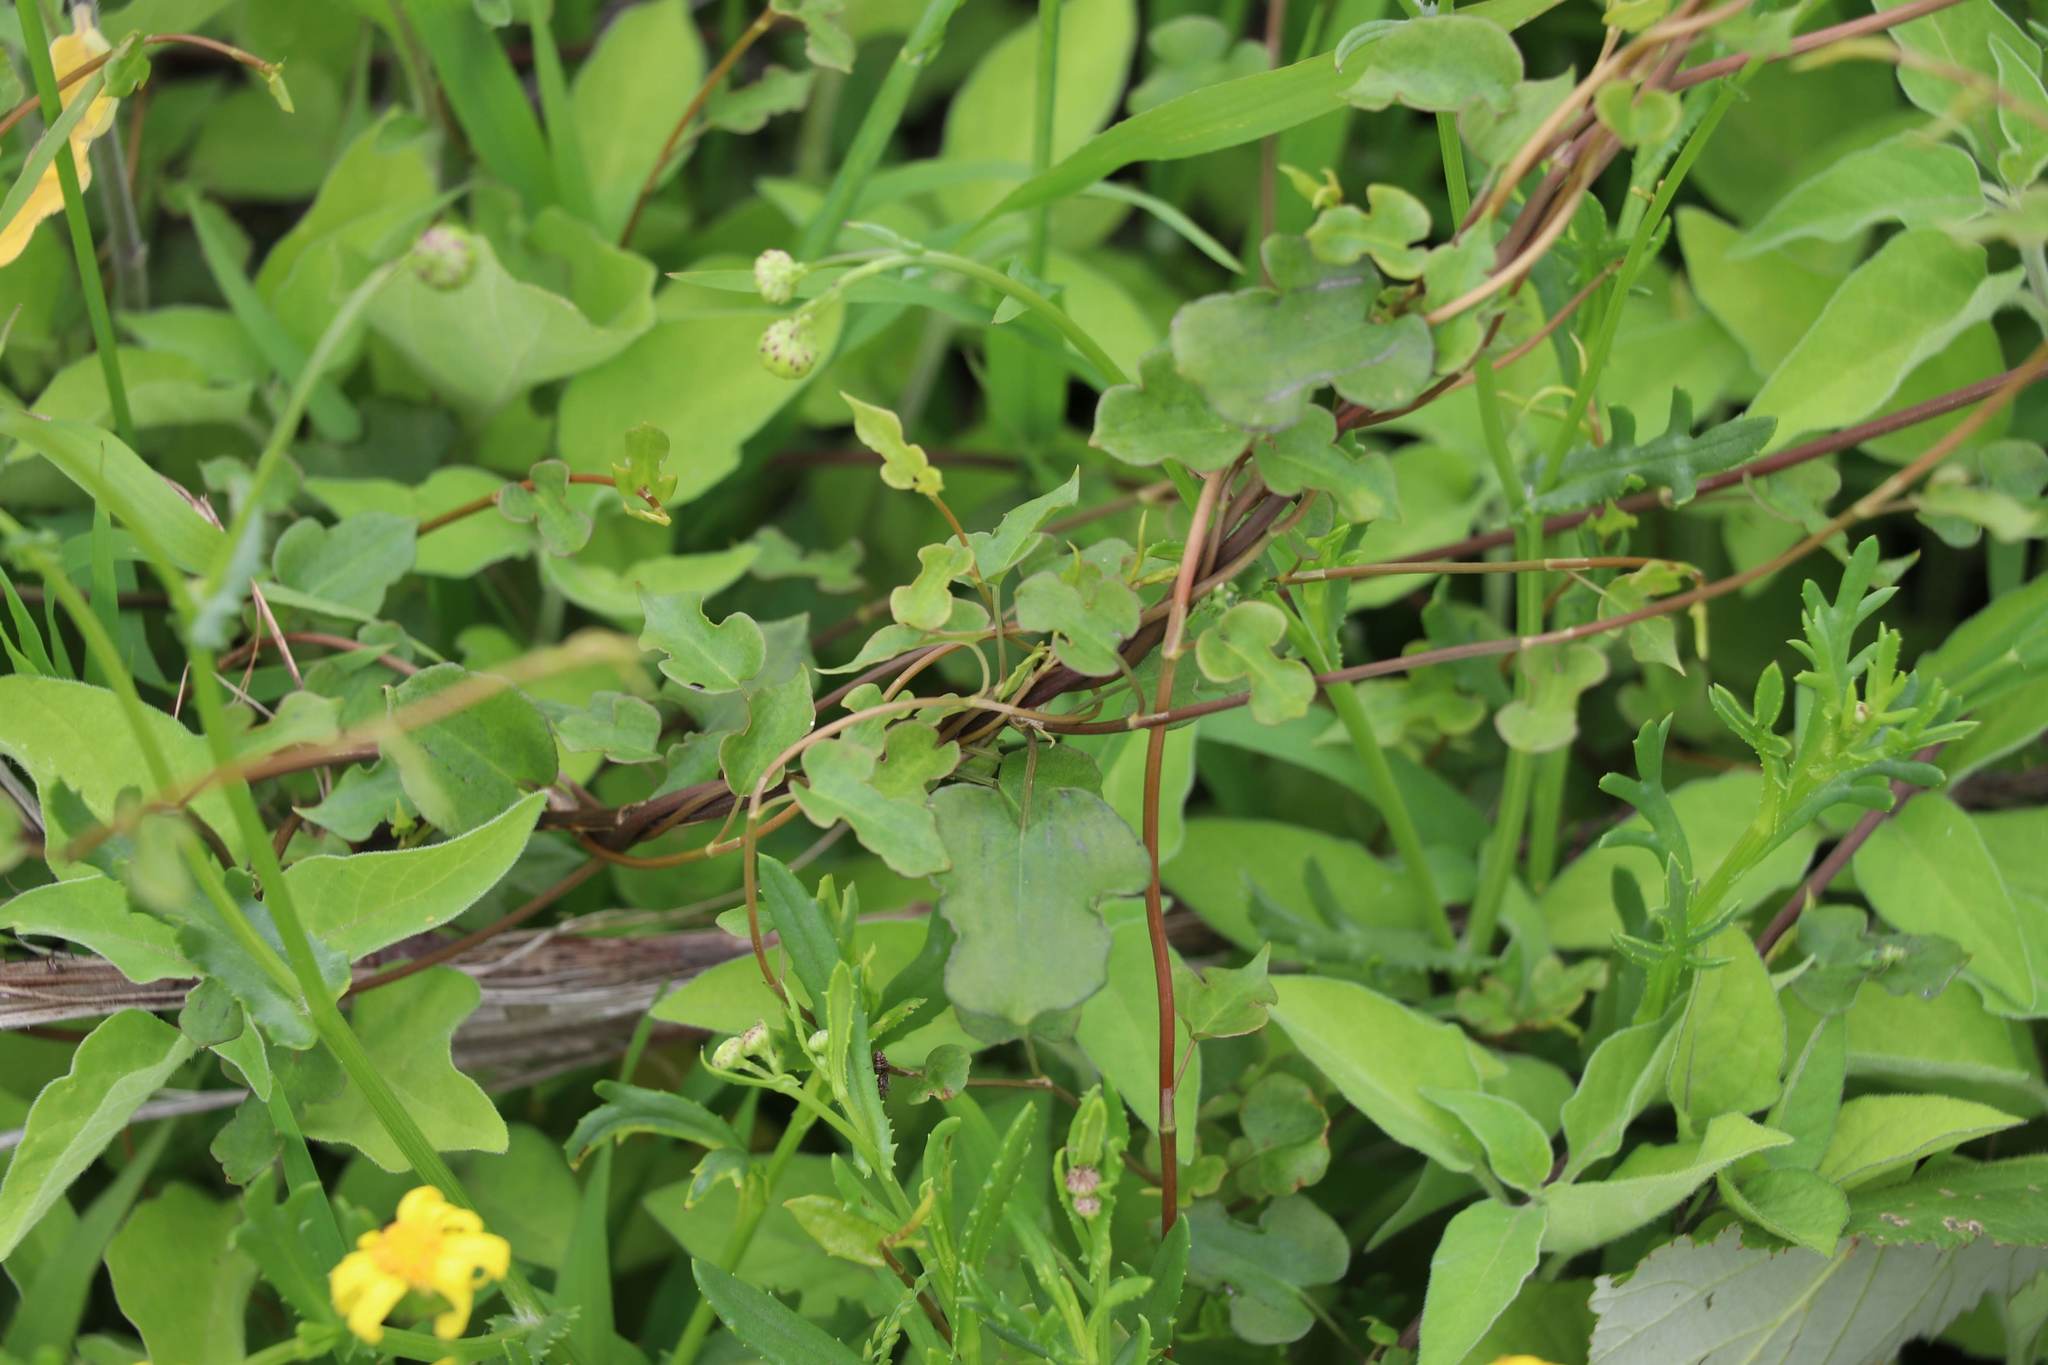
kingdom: Plantae
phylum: Tracheophyta
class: Magnoliopsida
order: Caryophyllales
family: Polygonaceae
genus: Muehlenbeckia
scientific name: Muehlenbeckia australis
